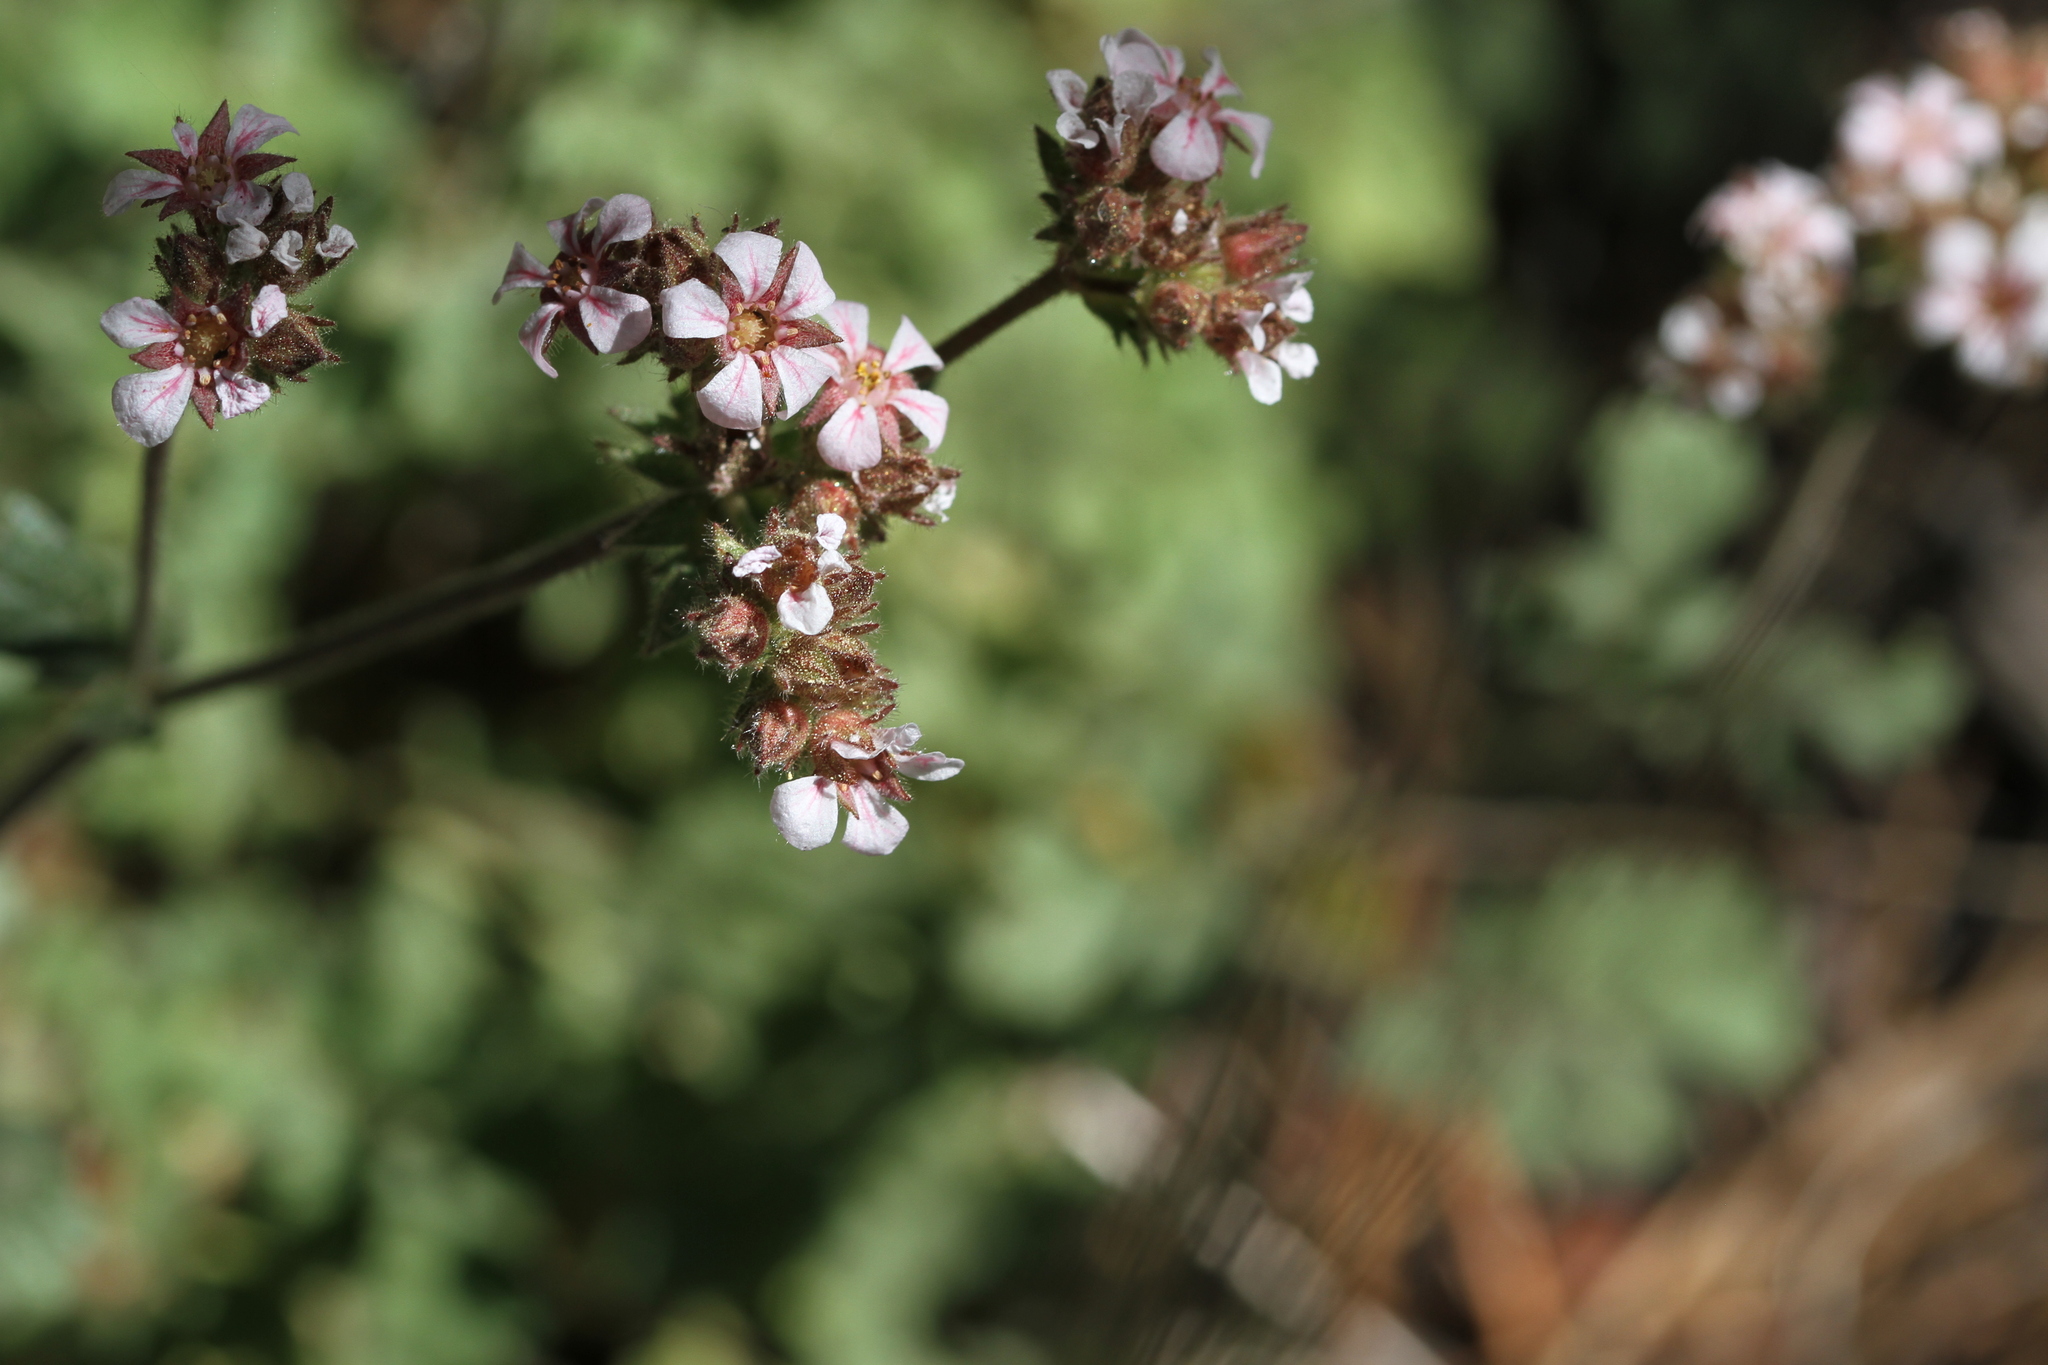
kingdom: Plantae
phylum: Tracheophyta
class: Magnoliopsida
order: Rosales
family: Rosaceae
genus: Potentilla
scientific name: Potentilla douglasii
